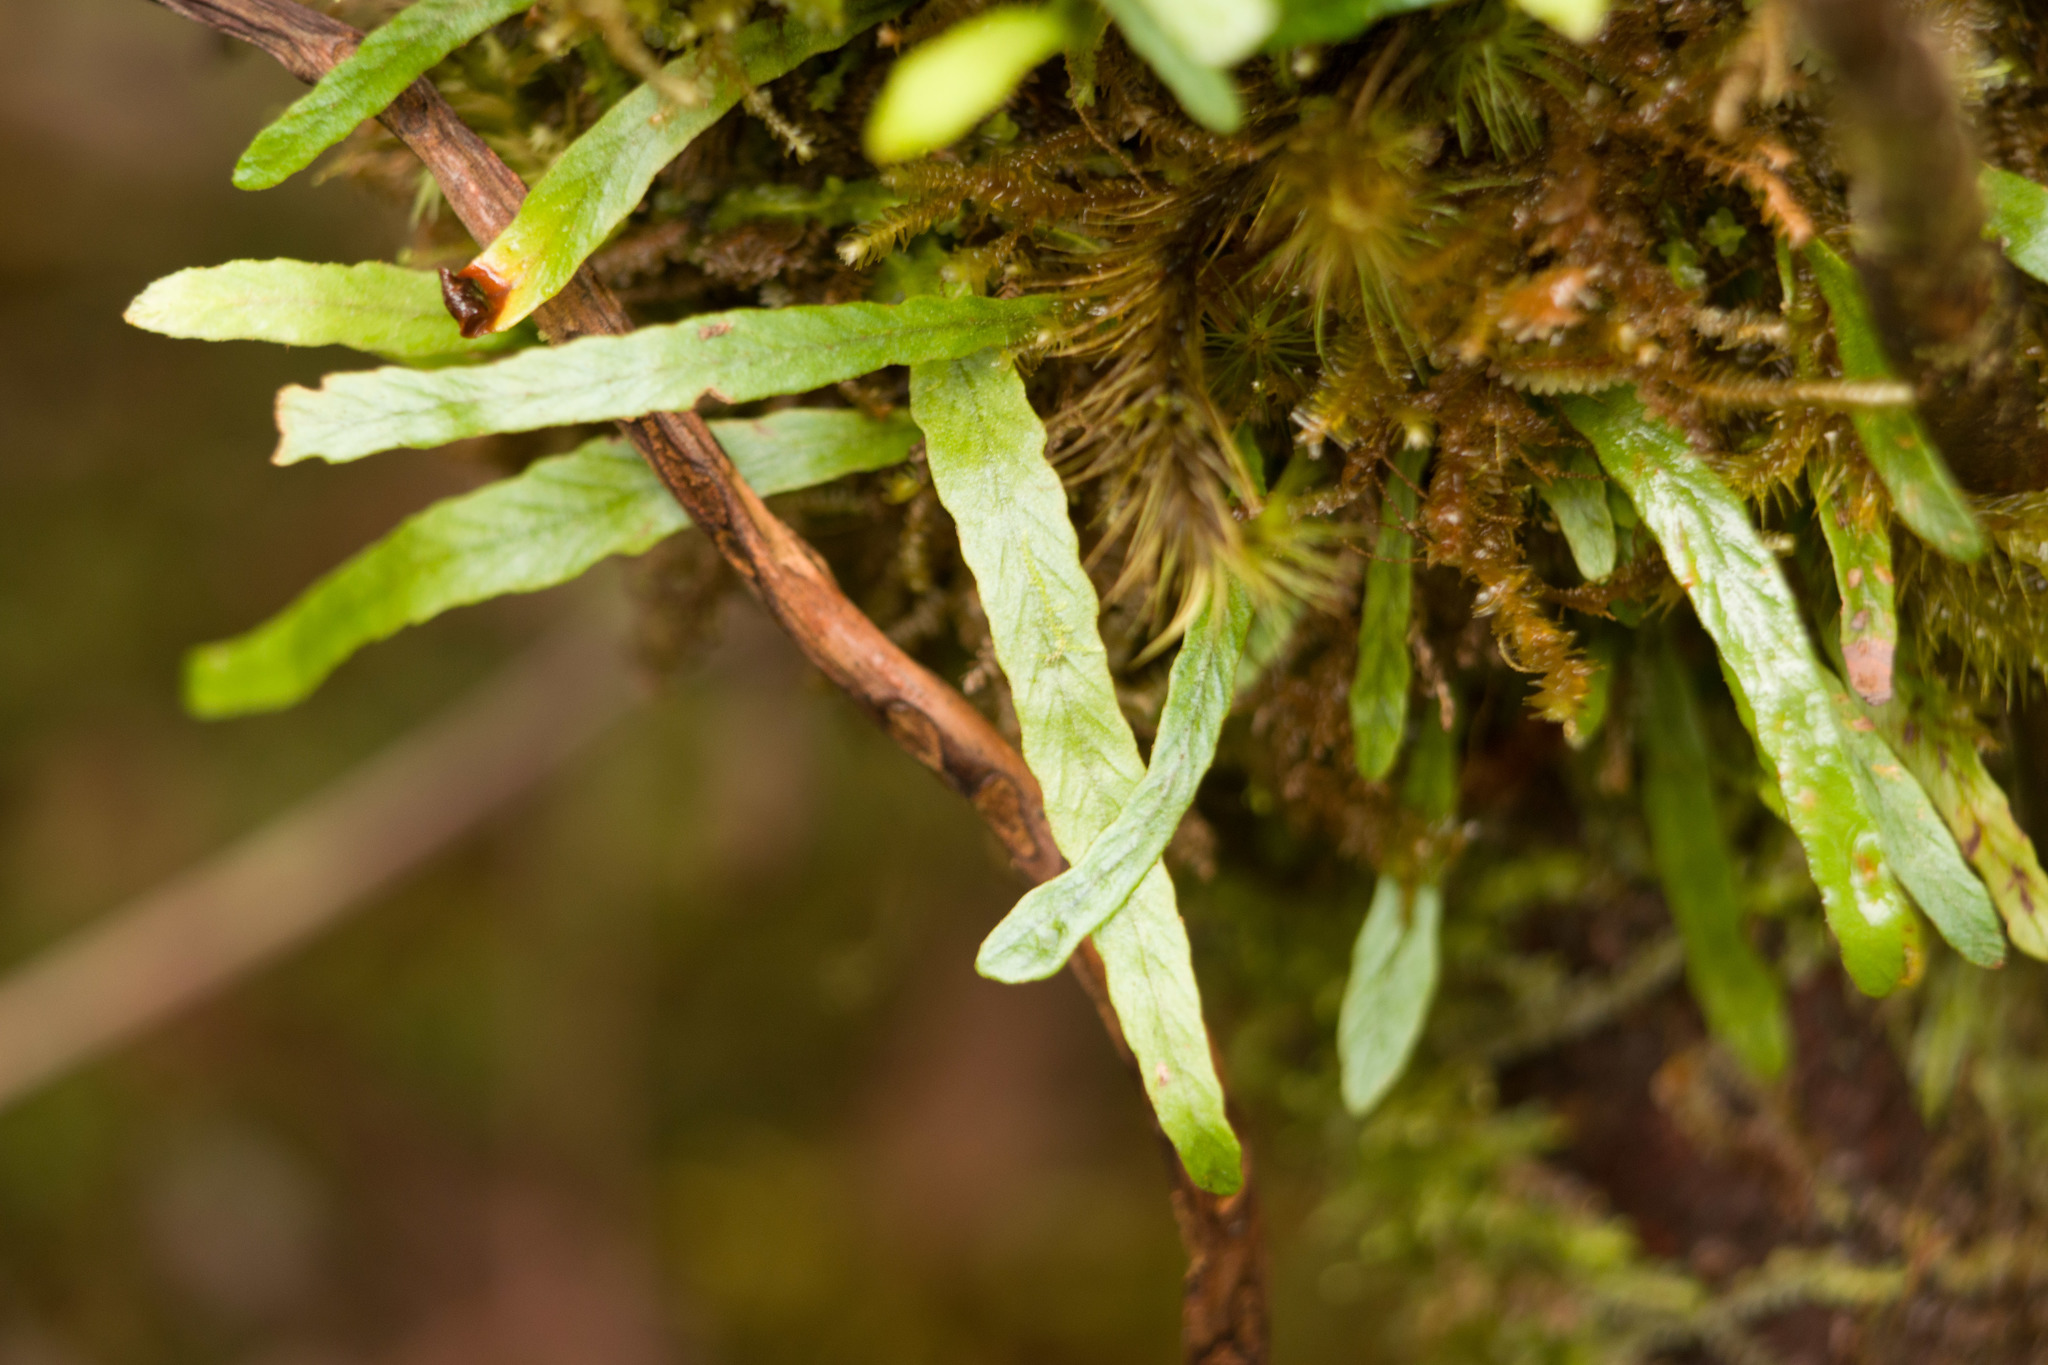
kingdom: Plantae
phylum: Tracheophyta
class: Polypodiopsida
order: Polypodiales
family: Polypodiaceae
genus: Adenophorus
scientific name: Adenophorus tenellus
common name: Kolokolo
